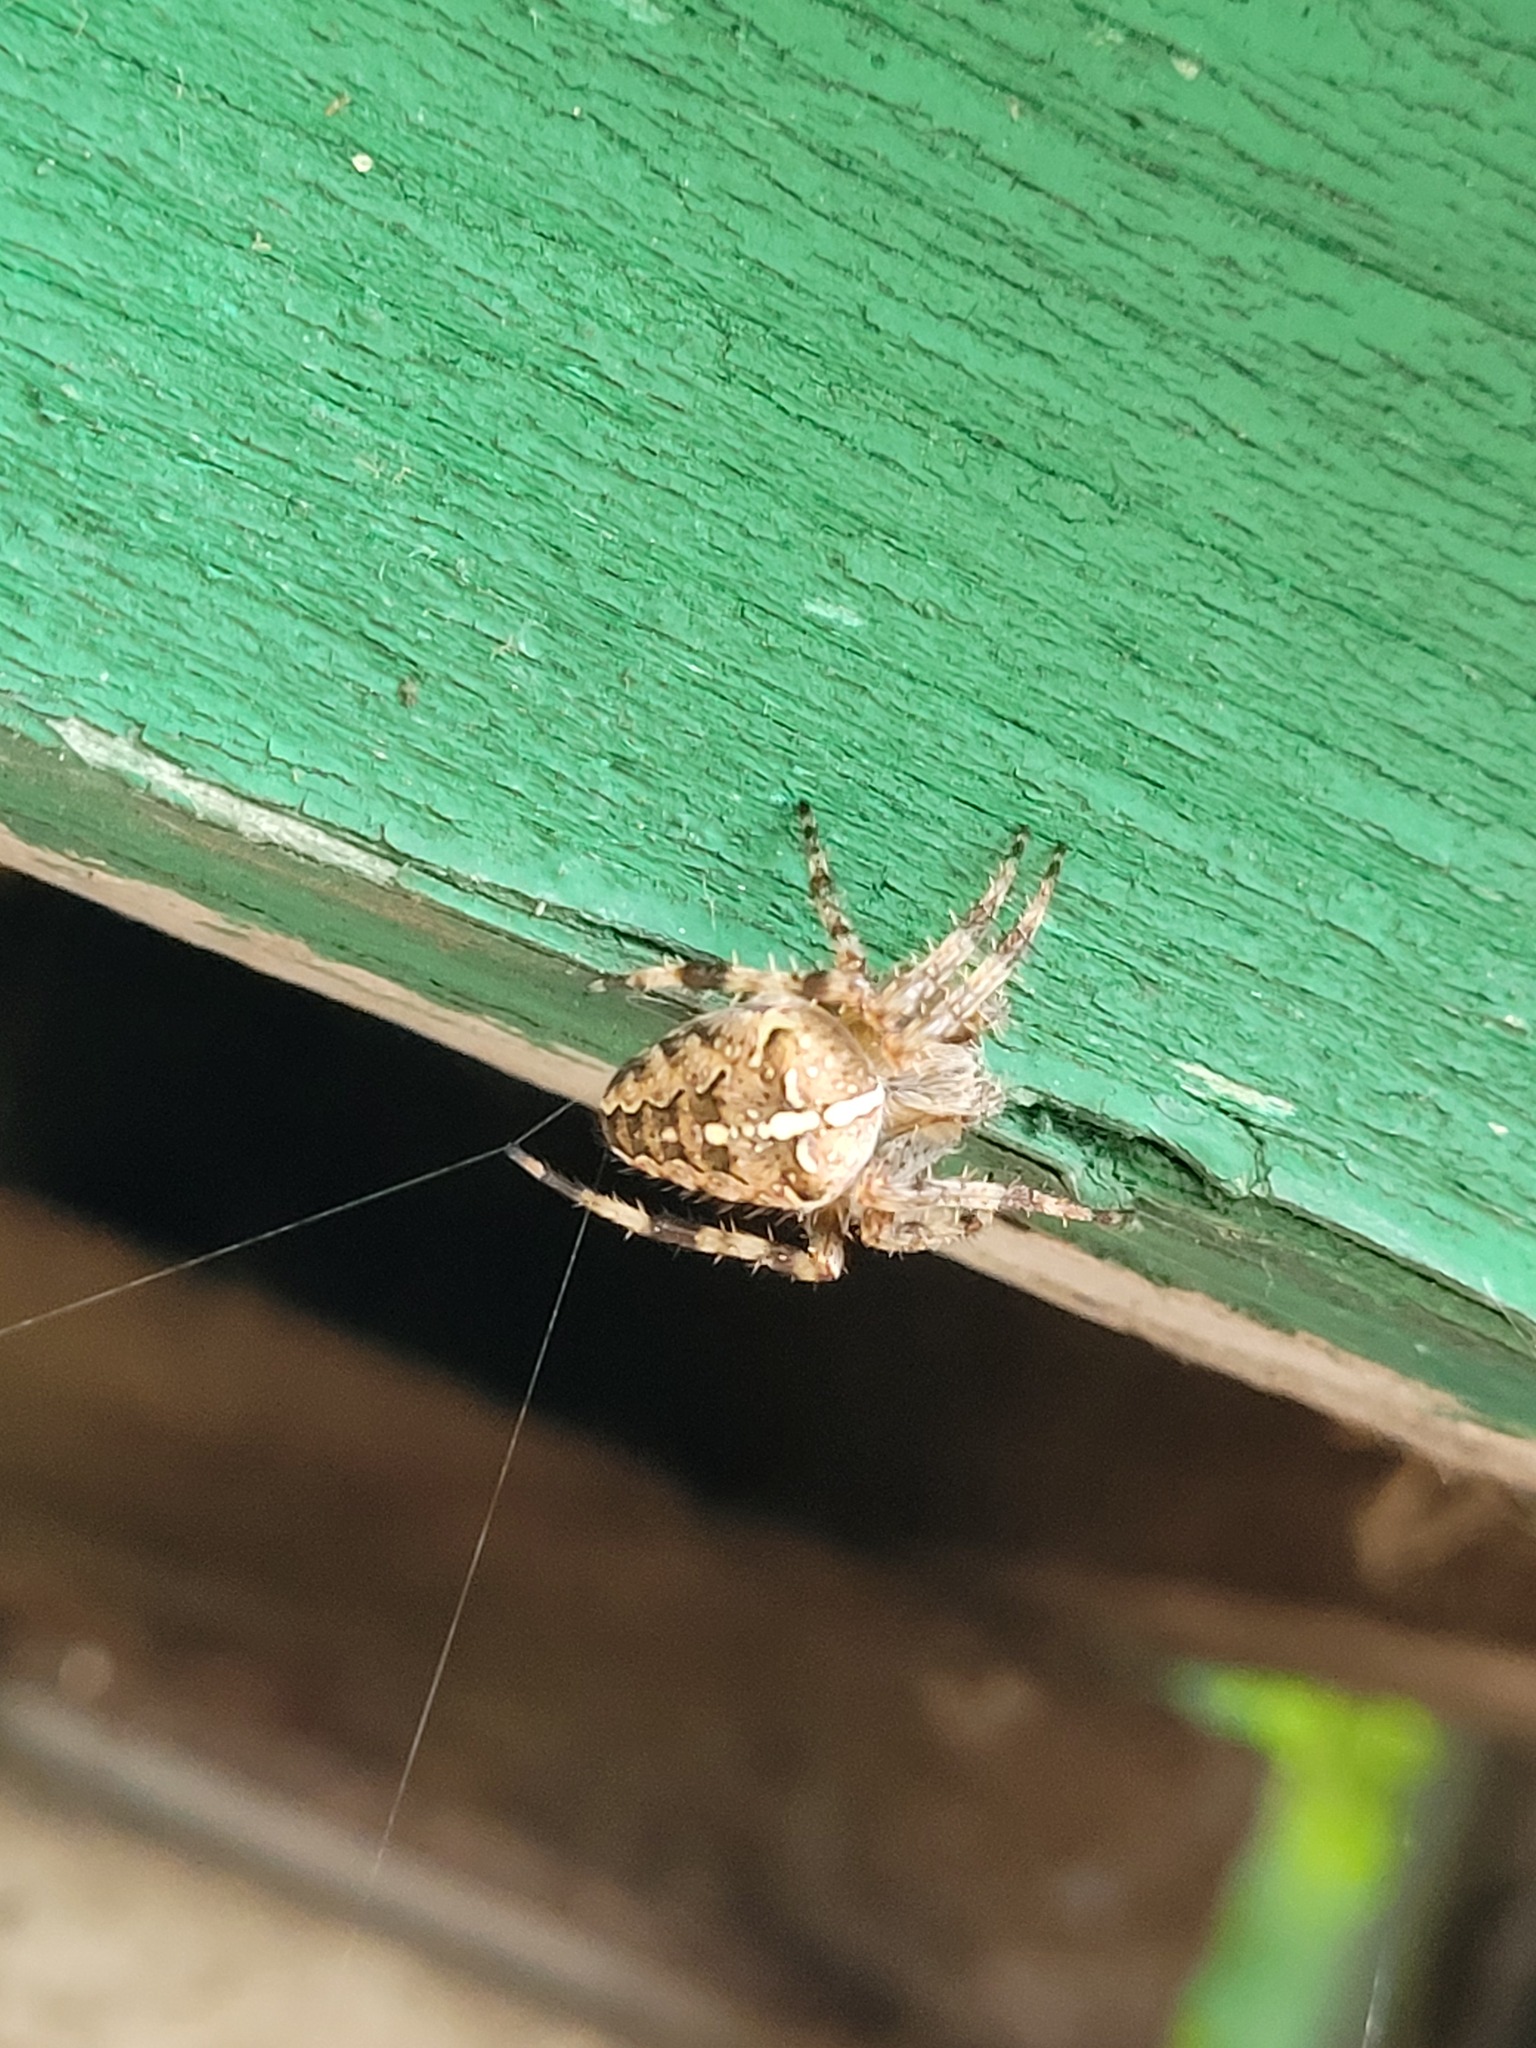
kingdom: Animalia
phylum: Arthropoda
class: Arachnida
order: Araneae
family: Araneidae
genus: Araneus
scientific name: Araneus diadematus
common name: Cross orbweaver
